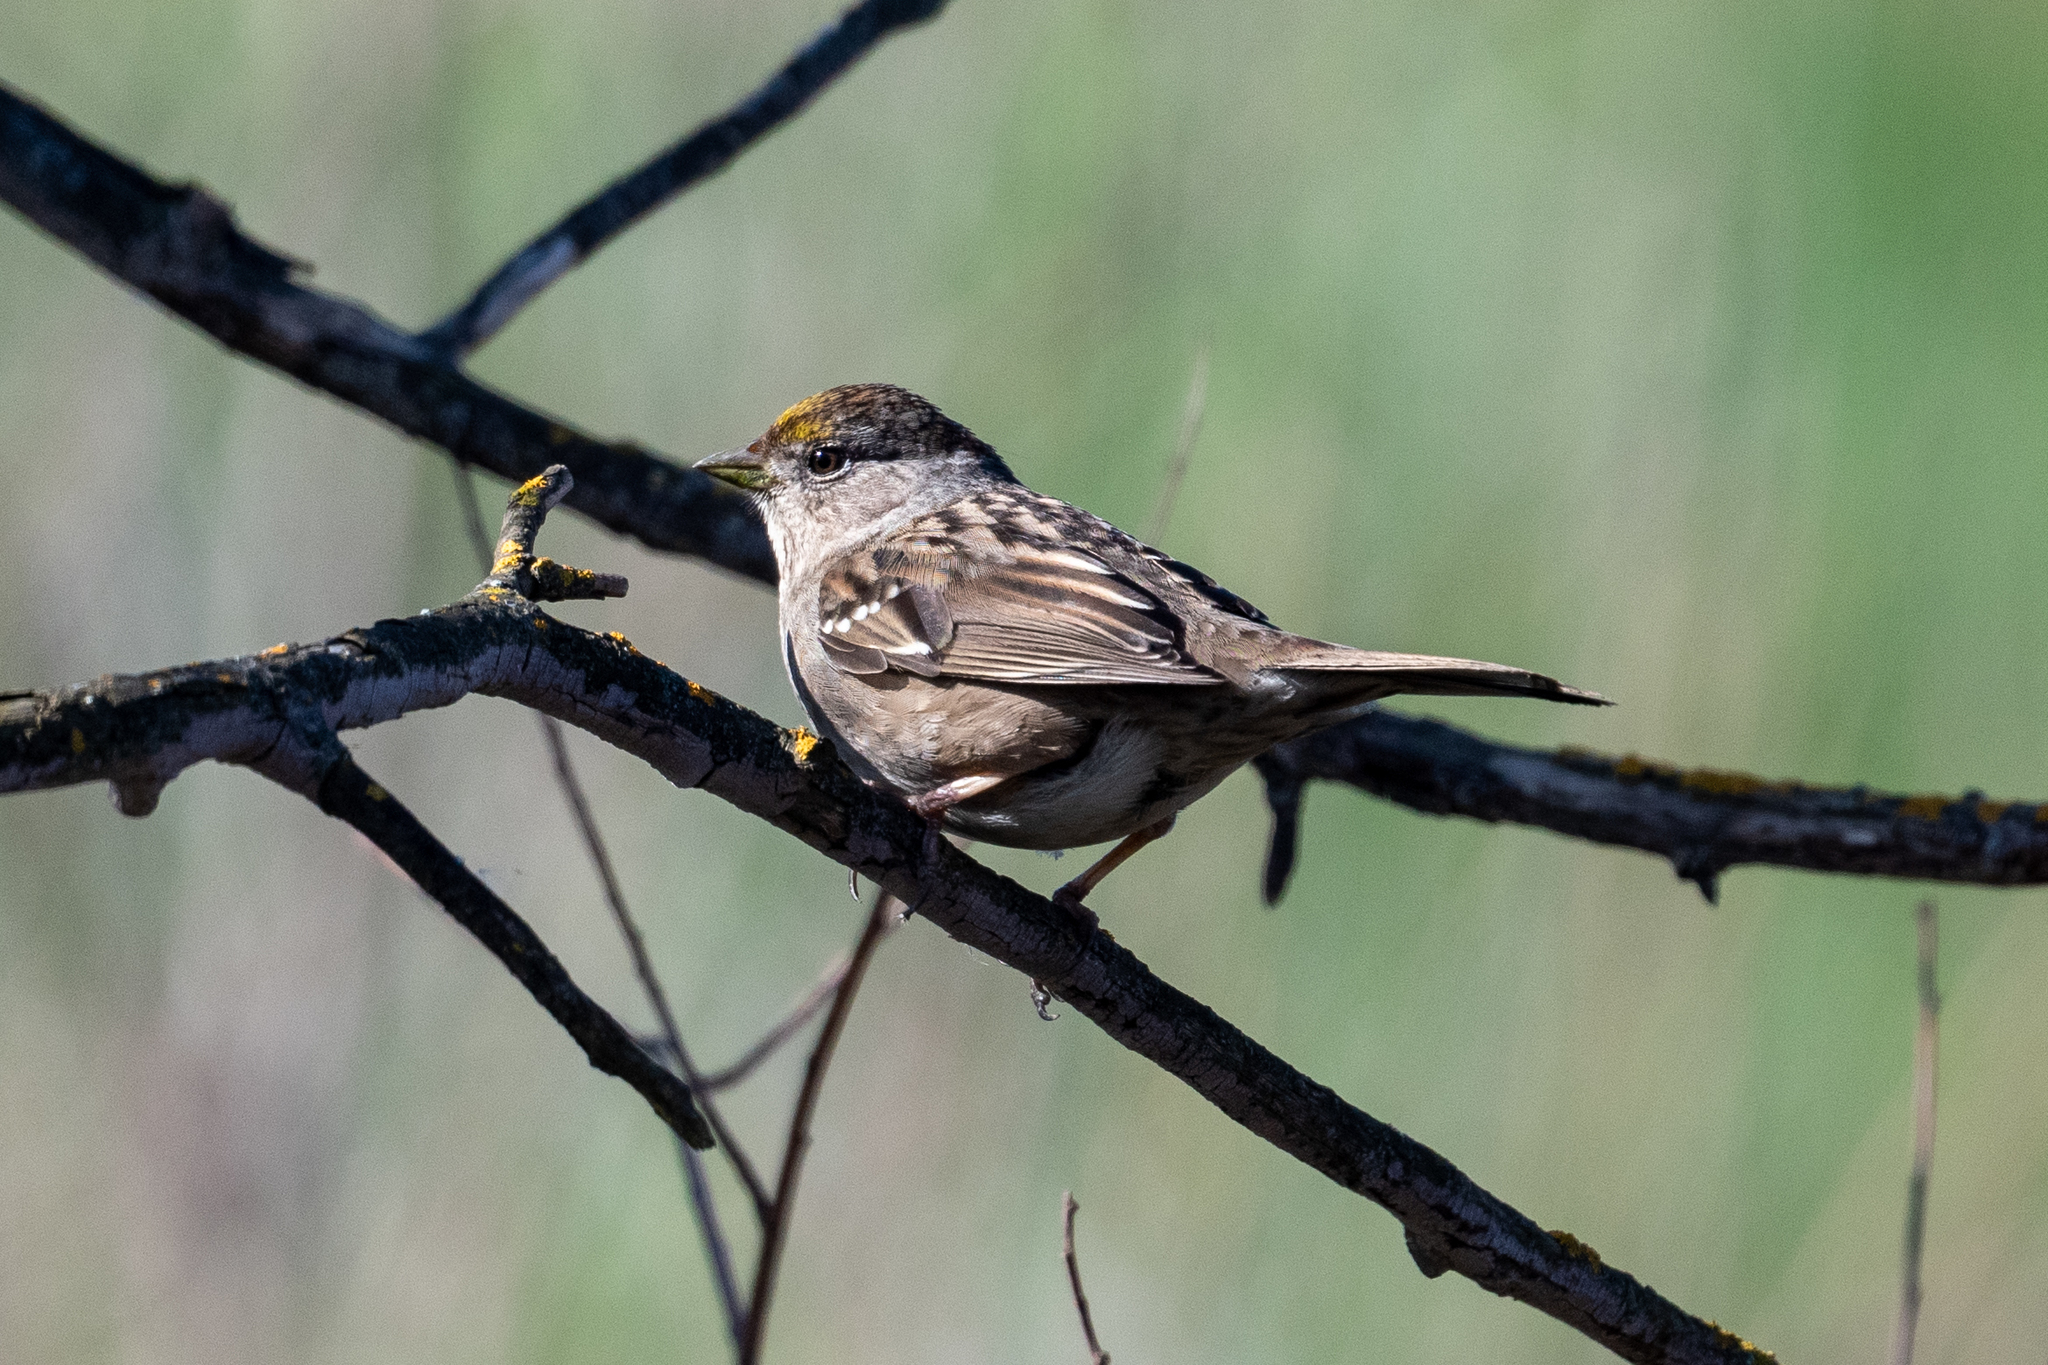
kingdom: Animalia
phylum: Chordata
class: Aves
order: Passeriformes
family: Passerellidae
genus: Zonotrichia
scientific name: Zonotrichia atricapilla
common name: Golden-crowned sparrow
